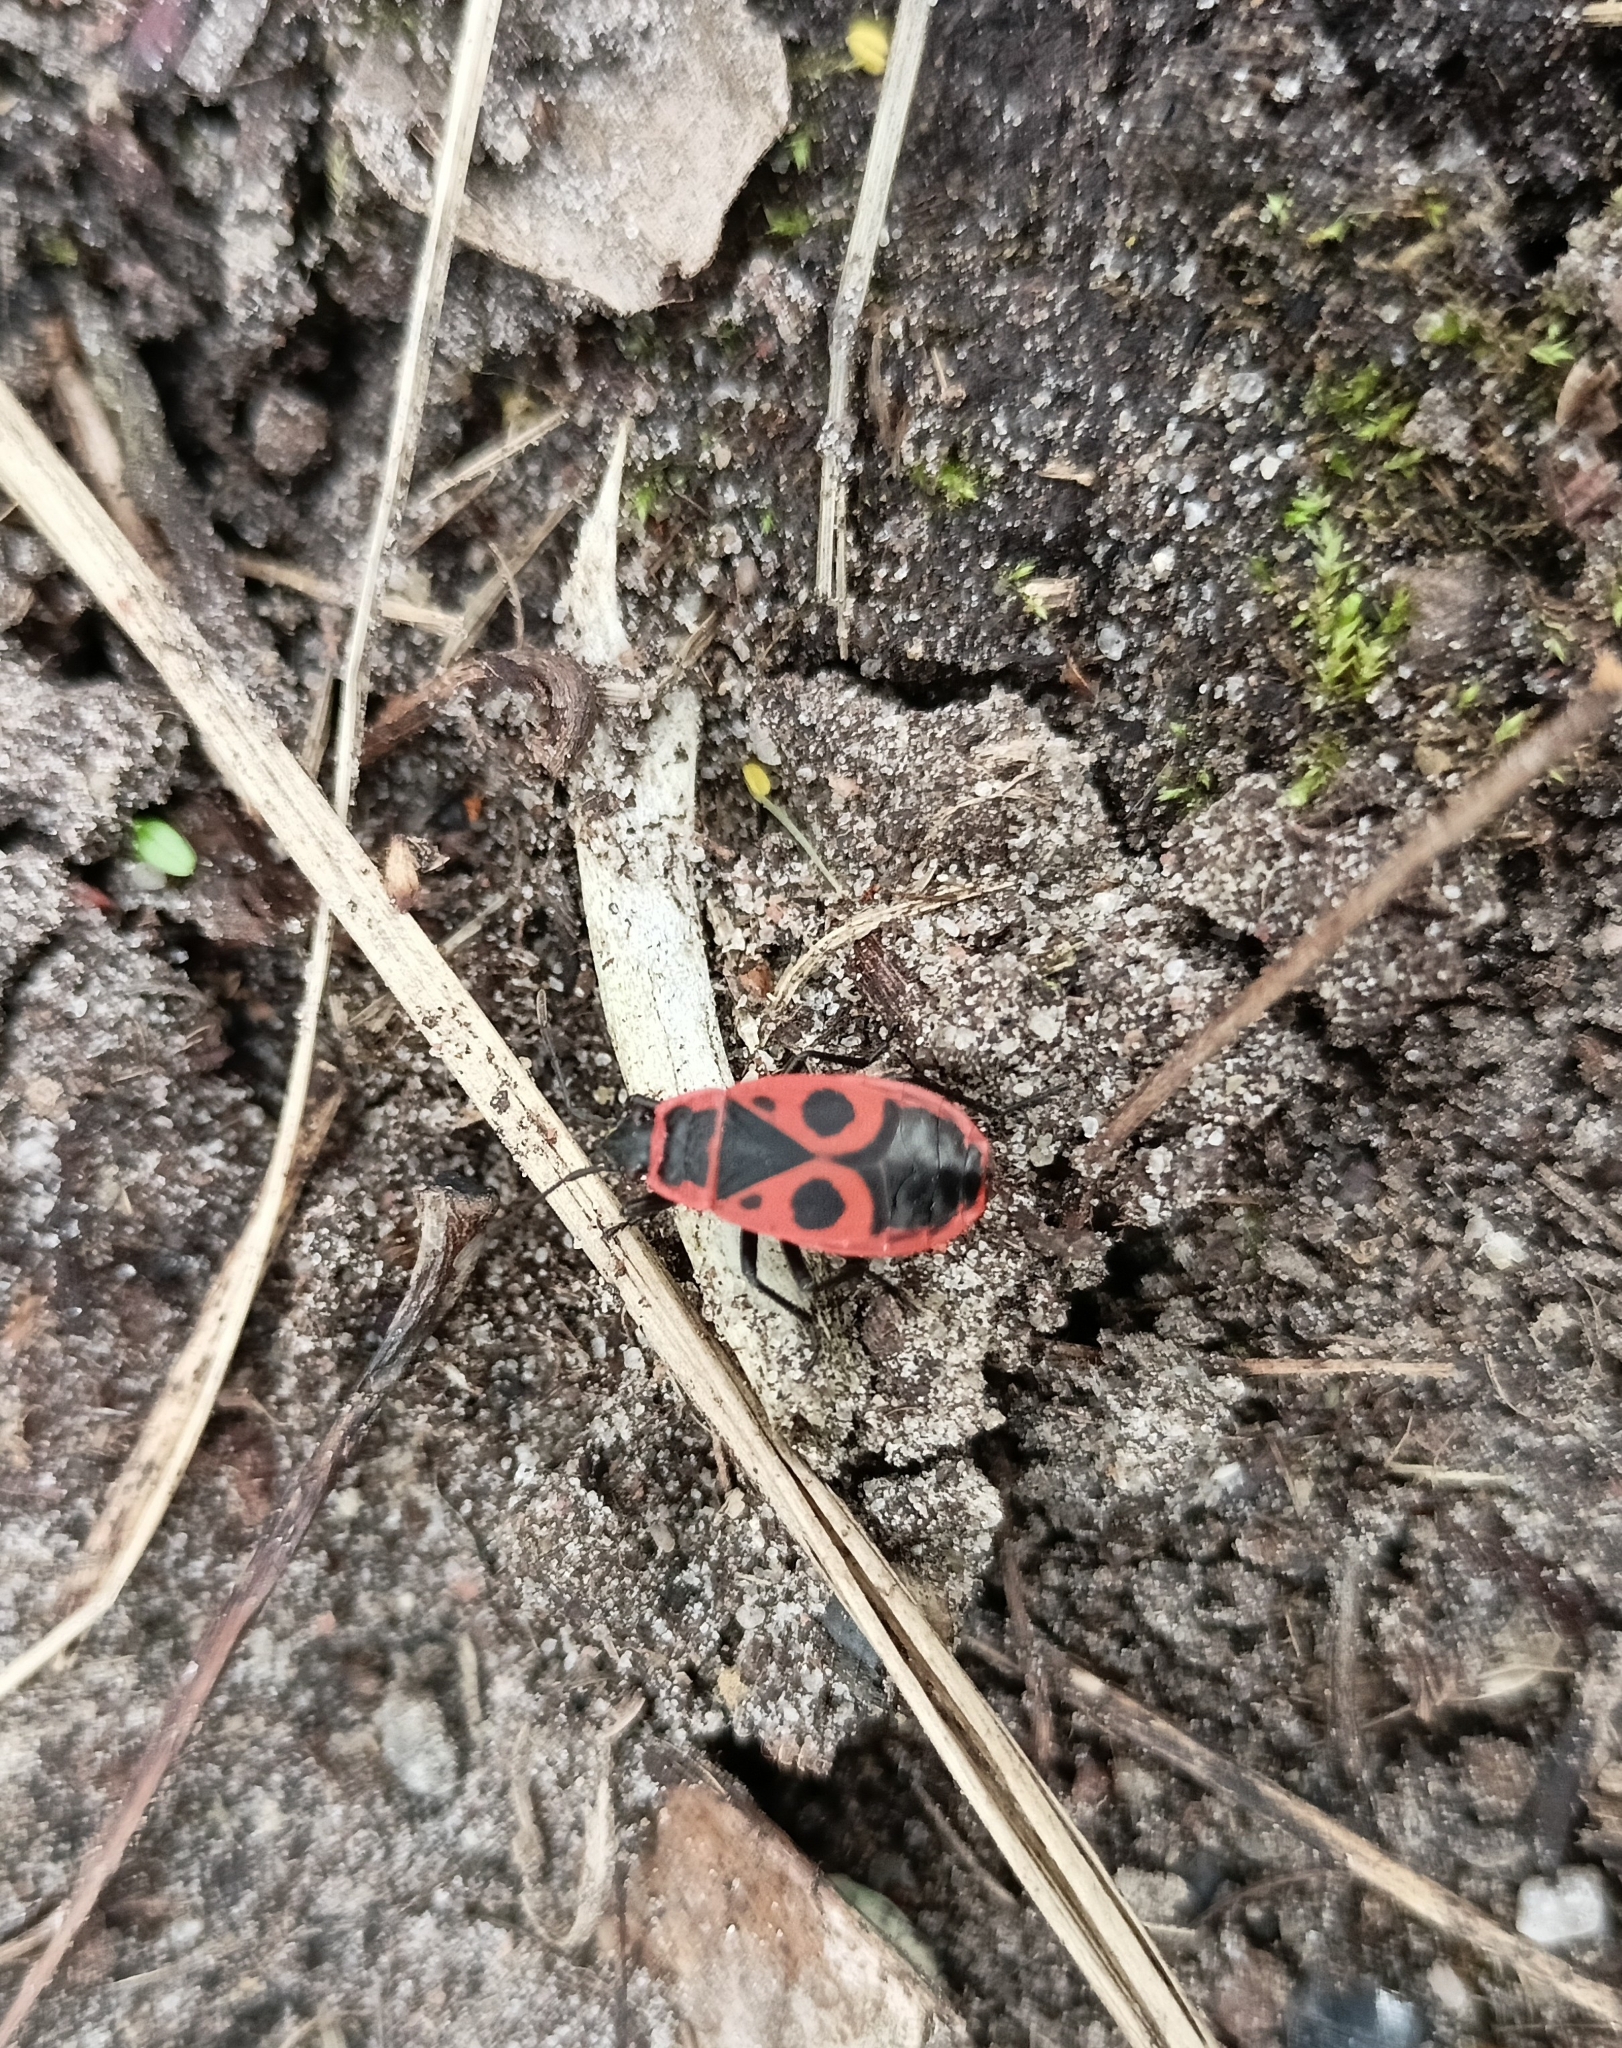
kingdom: Animalia
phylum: Arthropoda
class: Insecta
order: Hemiptera
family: Pyrrhocoridae
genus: Pyrrhocoris
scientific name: Pyrrhocoris apterus
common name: Firebug
